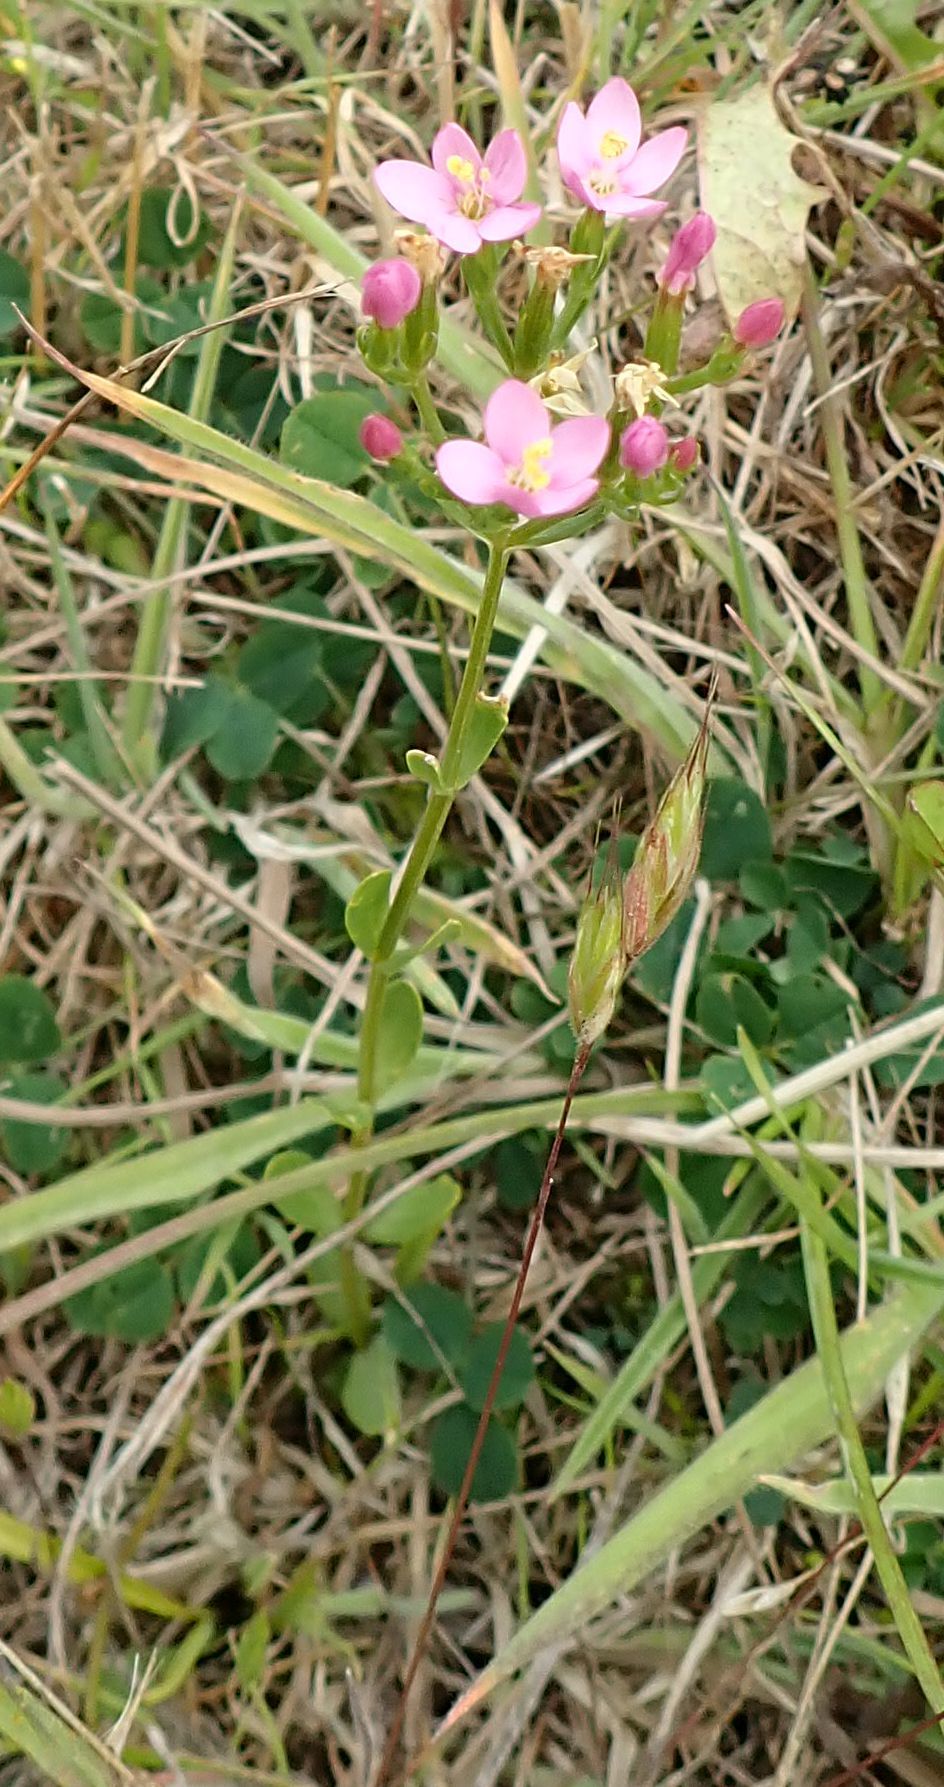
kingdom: Plantae
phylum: Tracheophyta
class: Magnoliopsida
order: Gentianales
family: Gentianaceae
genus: Centaurium
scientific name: Centaurium erythraea
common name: Common centaury
